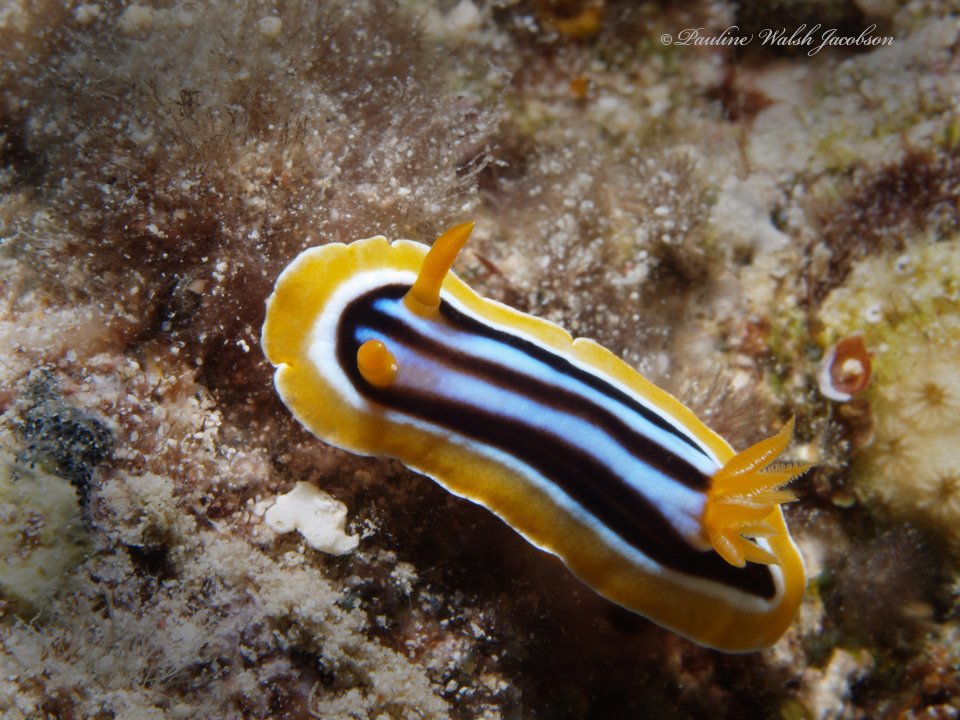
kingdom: Animalia
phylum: Mollusca
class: Gastropoda
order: Nudibranchia
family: Chromodorididae
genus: Chromodoris
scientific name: Chromodoris quadricolor
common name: Striped pyjama nudibranch
